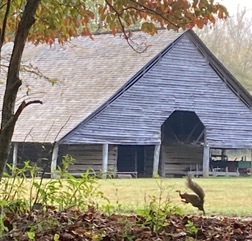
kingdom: Animalia
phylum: Chordata
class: Mammalia
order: Rodentia
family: Sciuridae
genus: Sciurus
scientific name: Sciurus carolinensis
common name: Eastern gray squirrel
